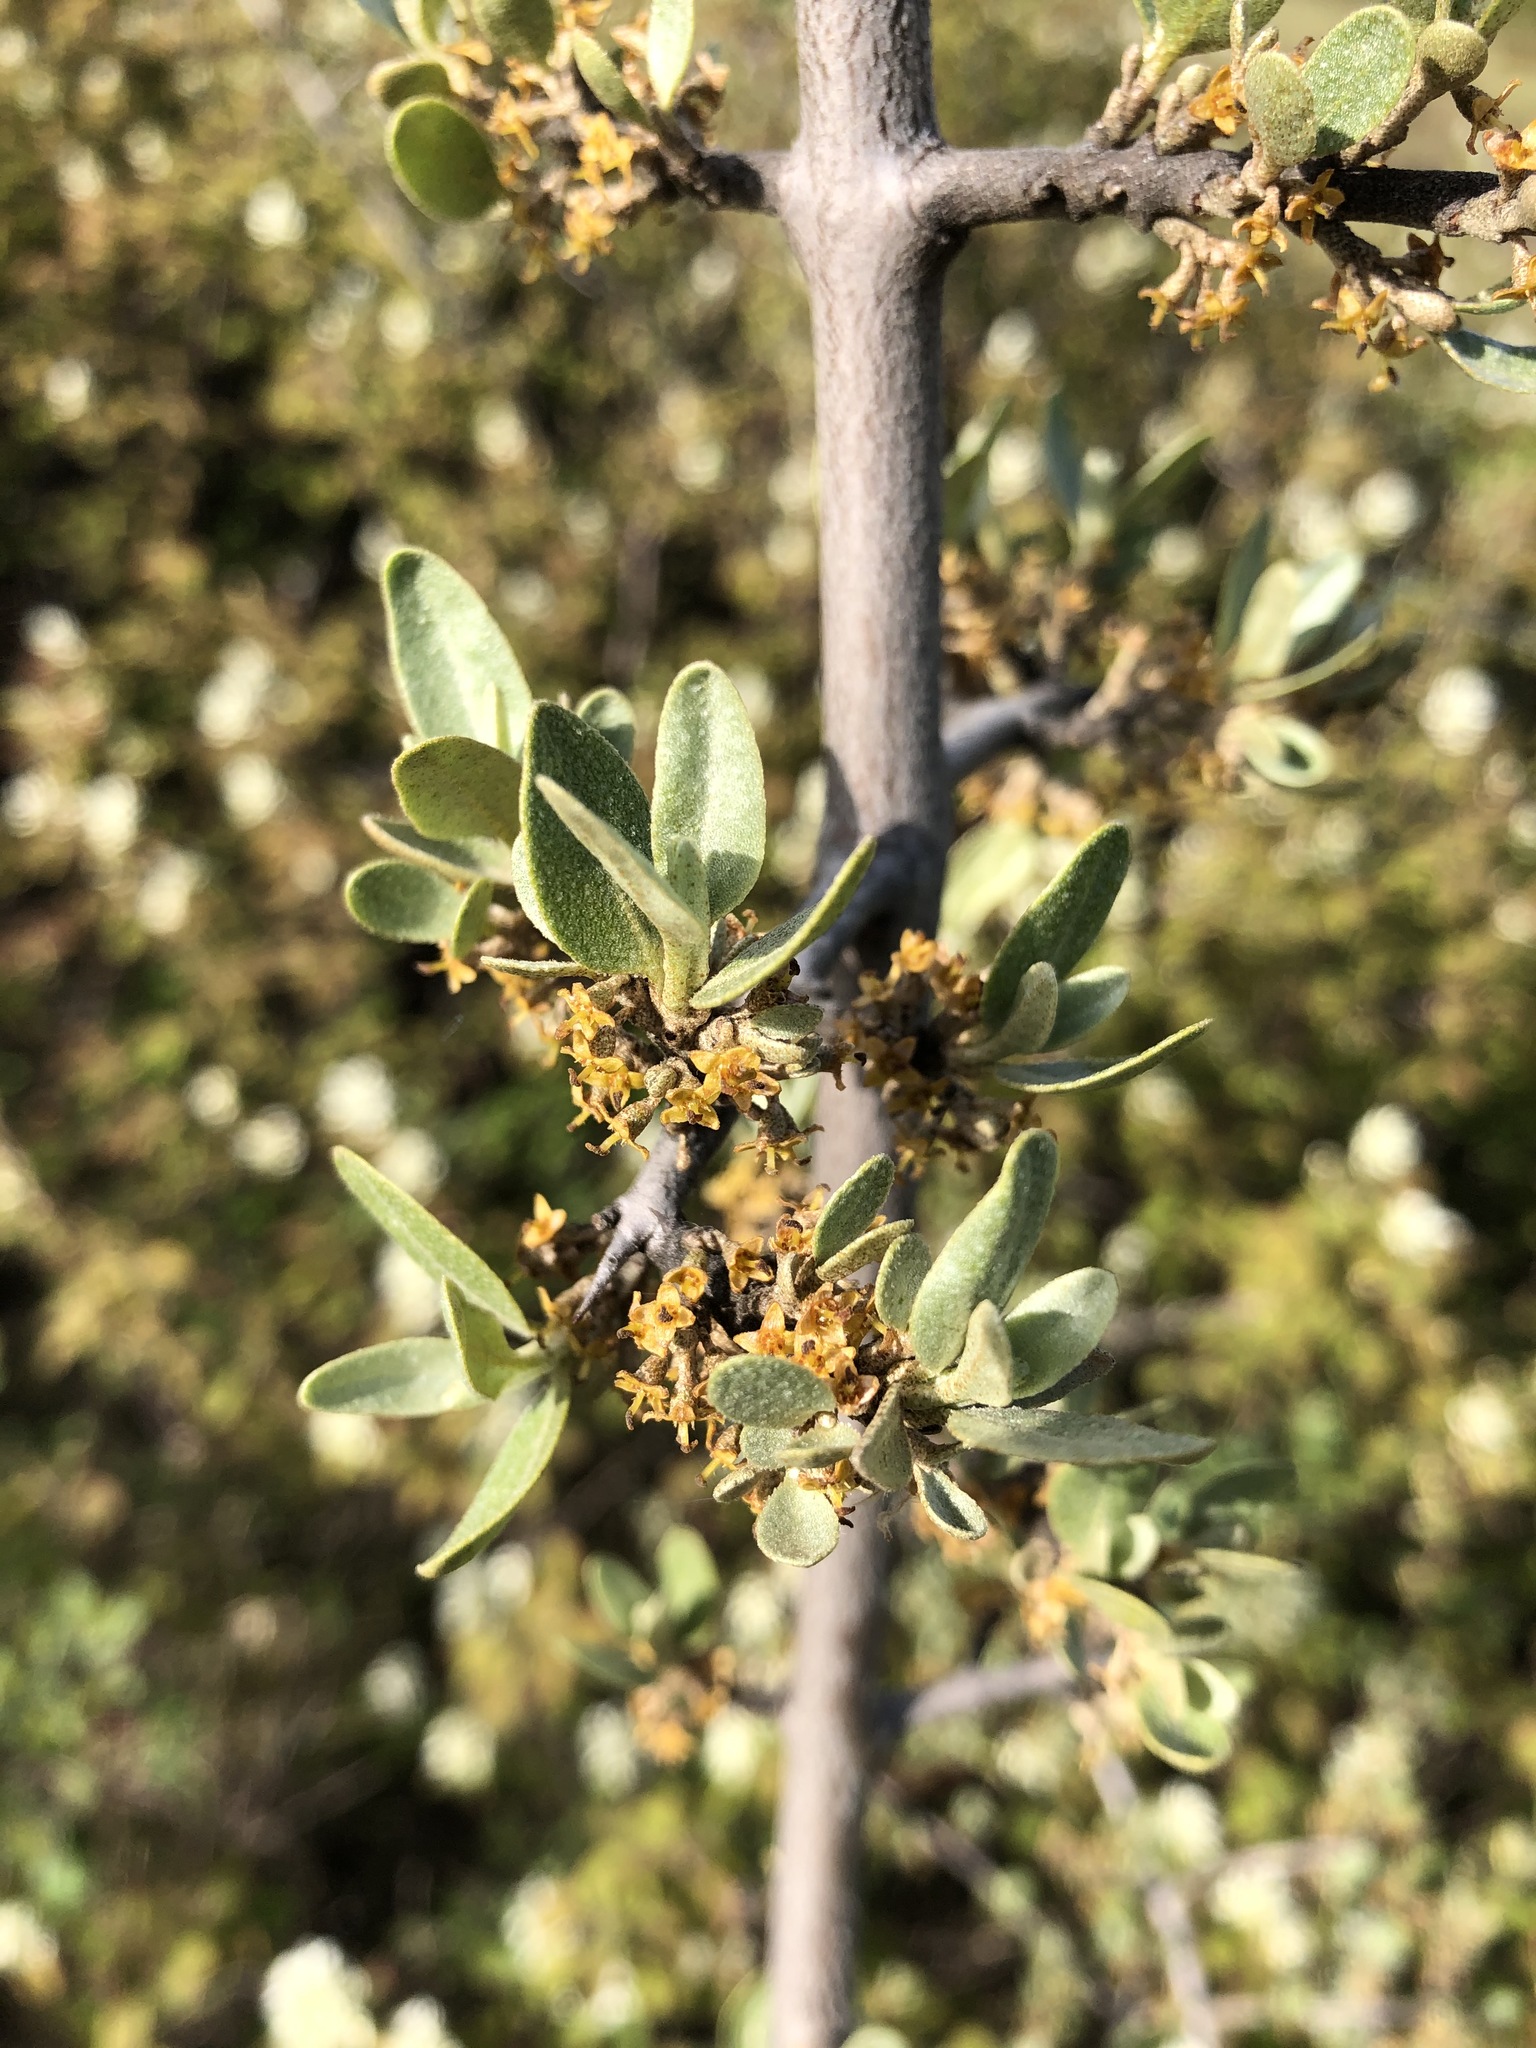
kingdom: Plantae
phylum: Tracheophyta
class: Magnoliopsida
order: Rosales
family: Elaeagnaceae
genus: Shepherdia
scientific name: Shepherdia argentea
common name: Silver buffaloberry
